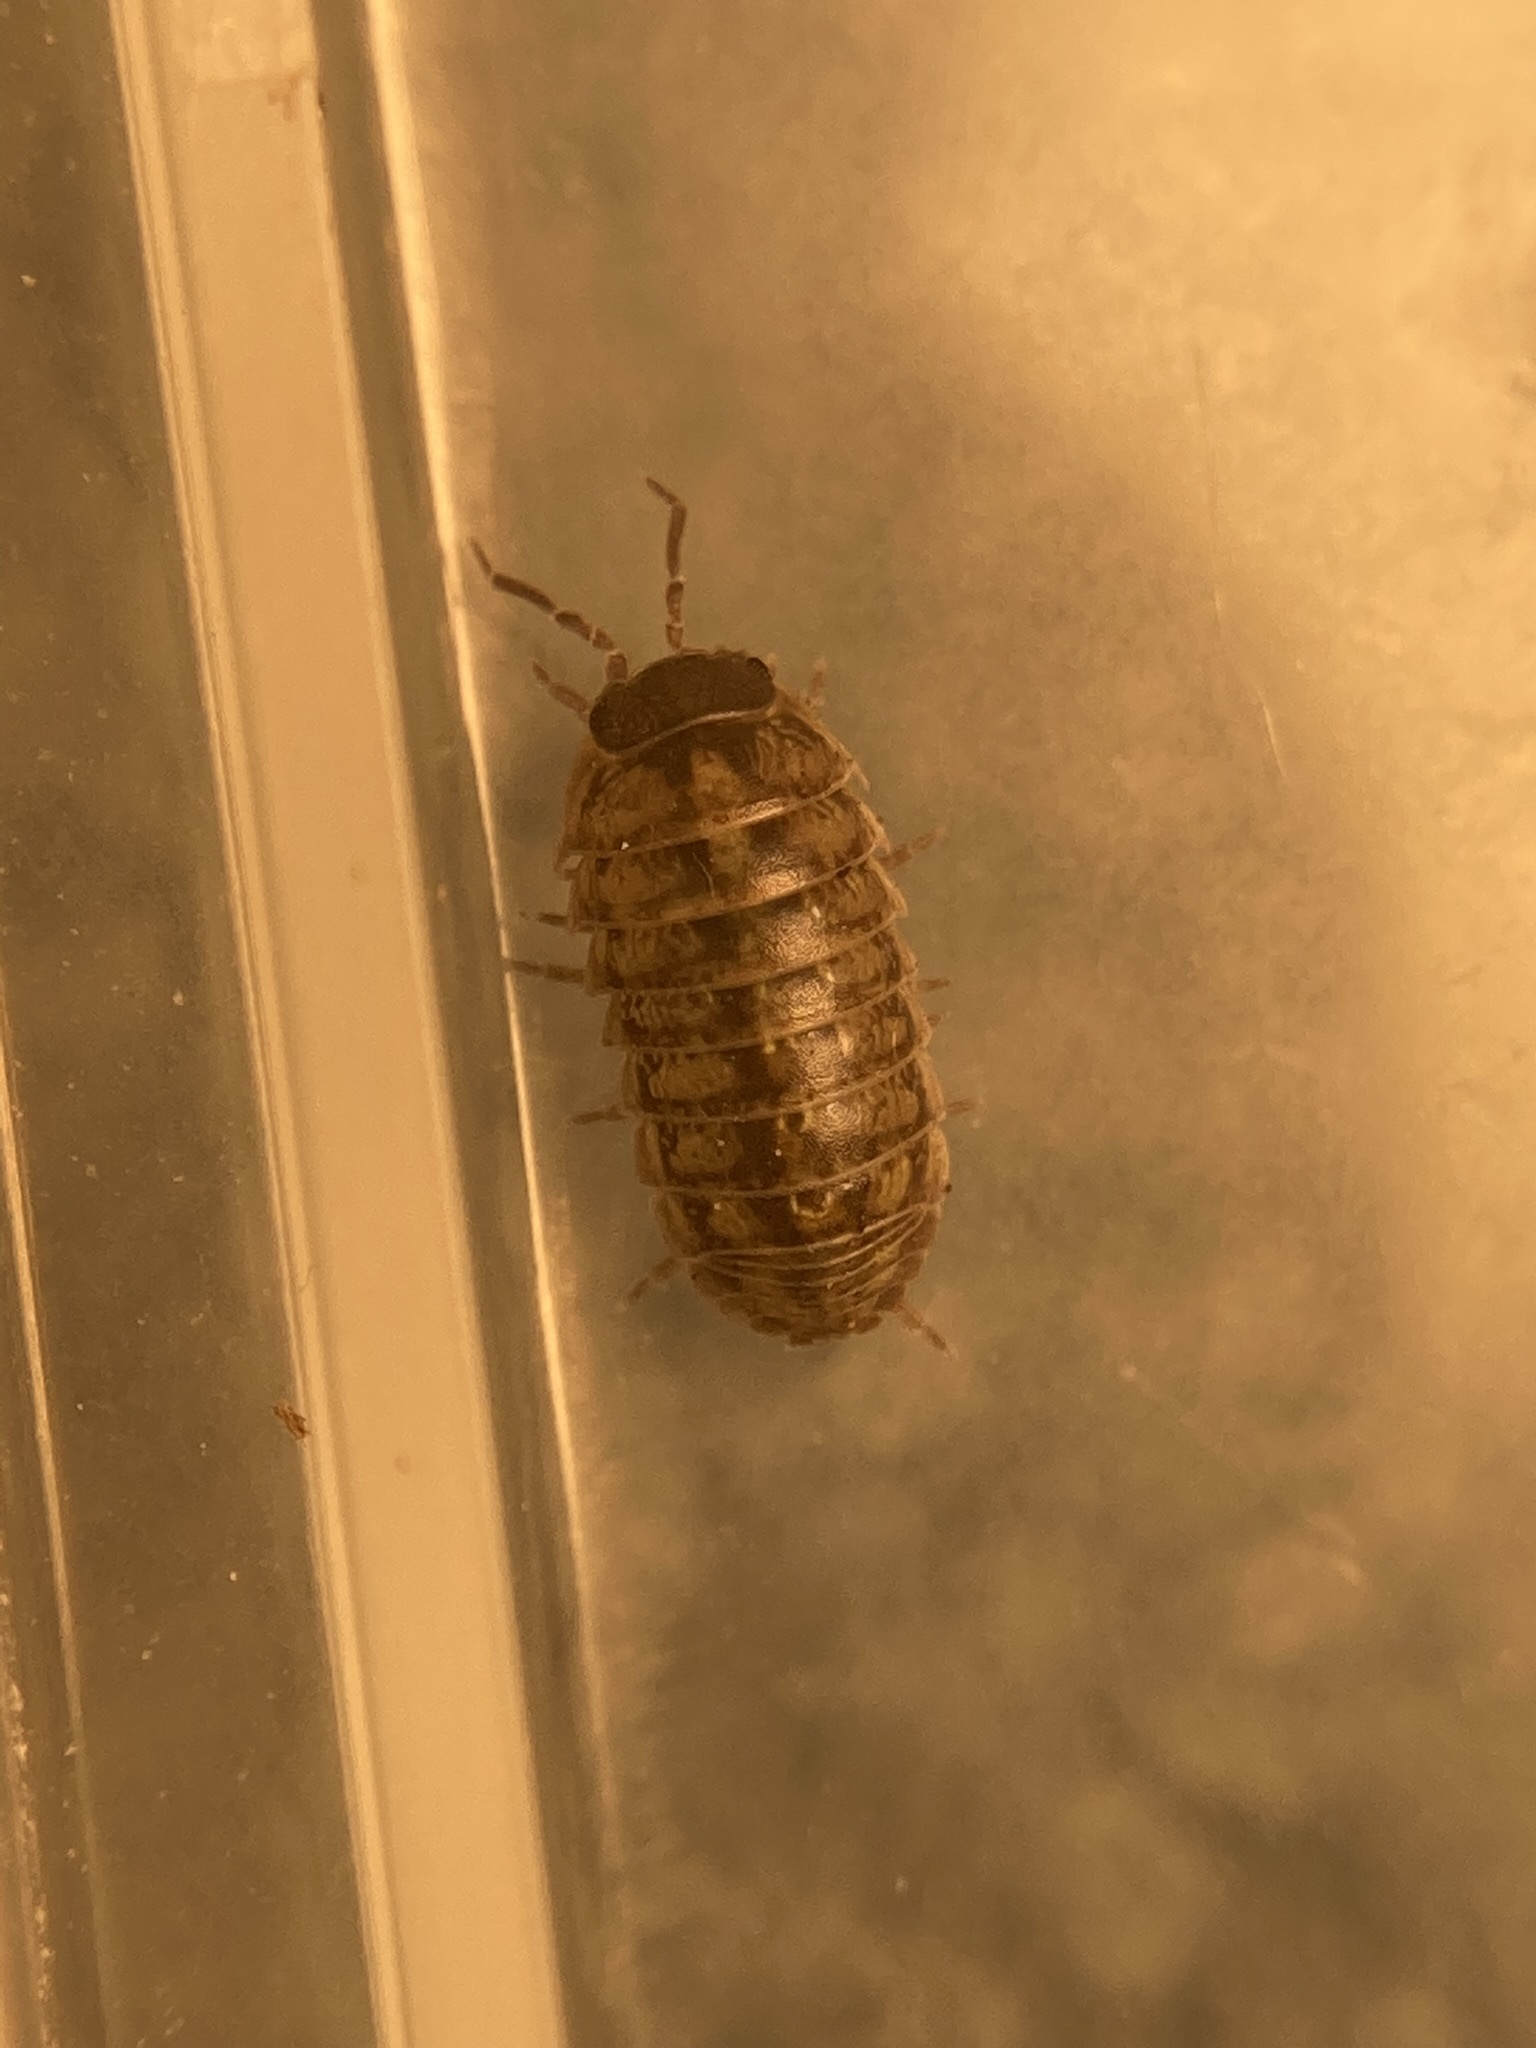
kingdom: Animalia
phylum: Arthropoda
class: Malacostraca
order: Isopoda
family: Armadillidiidae
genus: Armadillidium
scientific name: Armadillidium vulgare
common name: Common pill woodlouse
